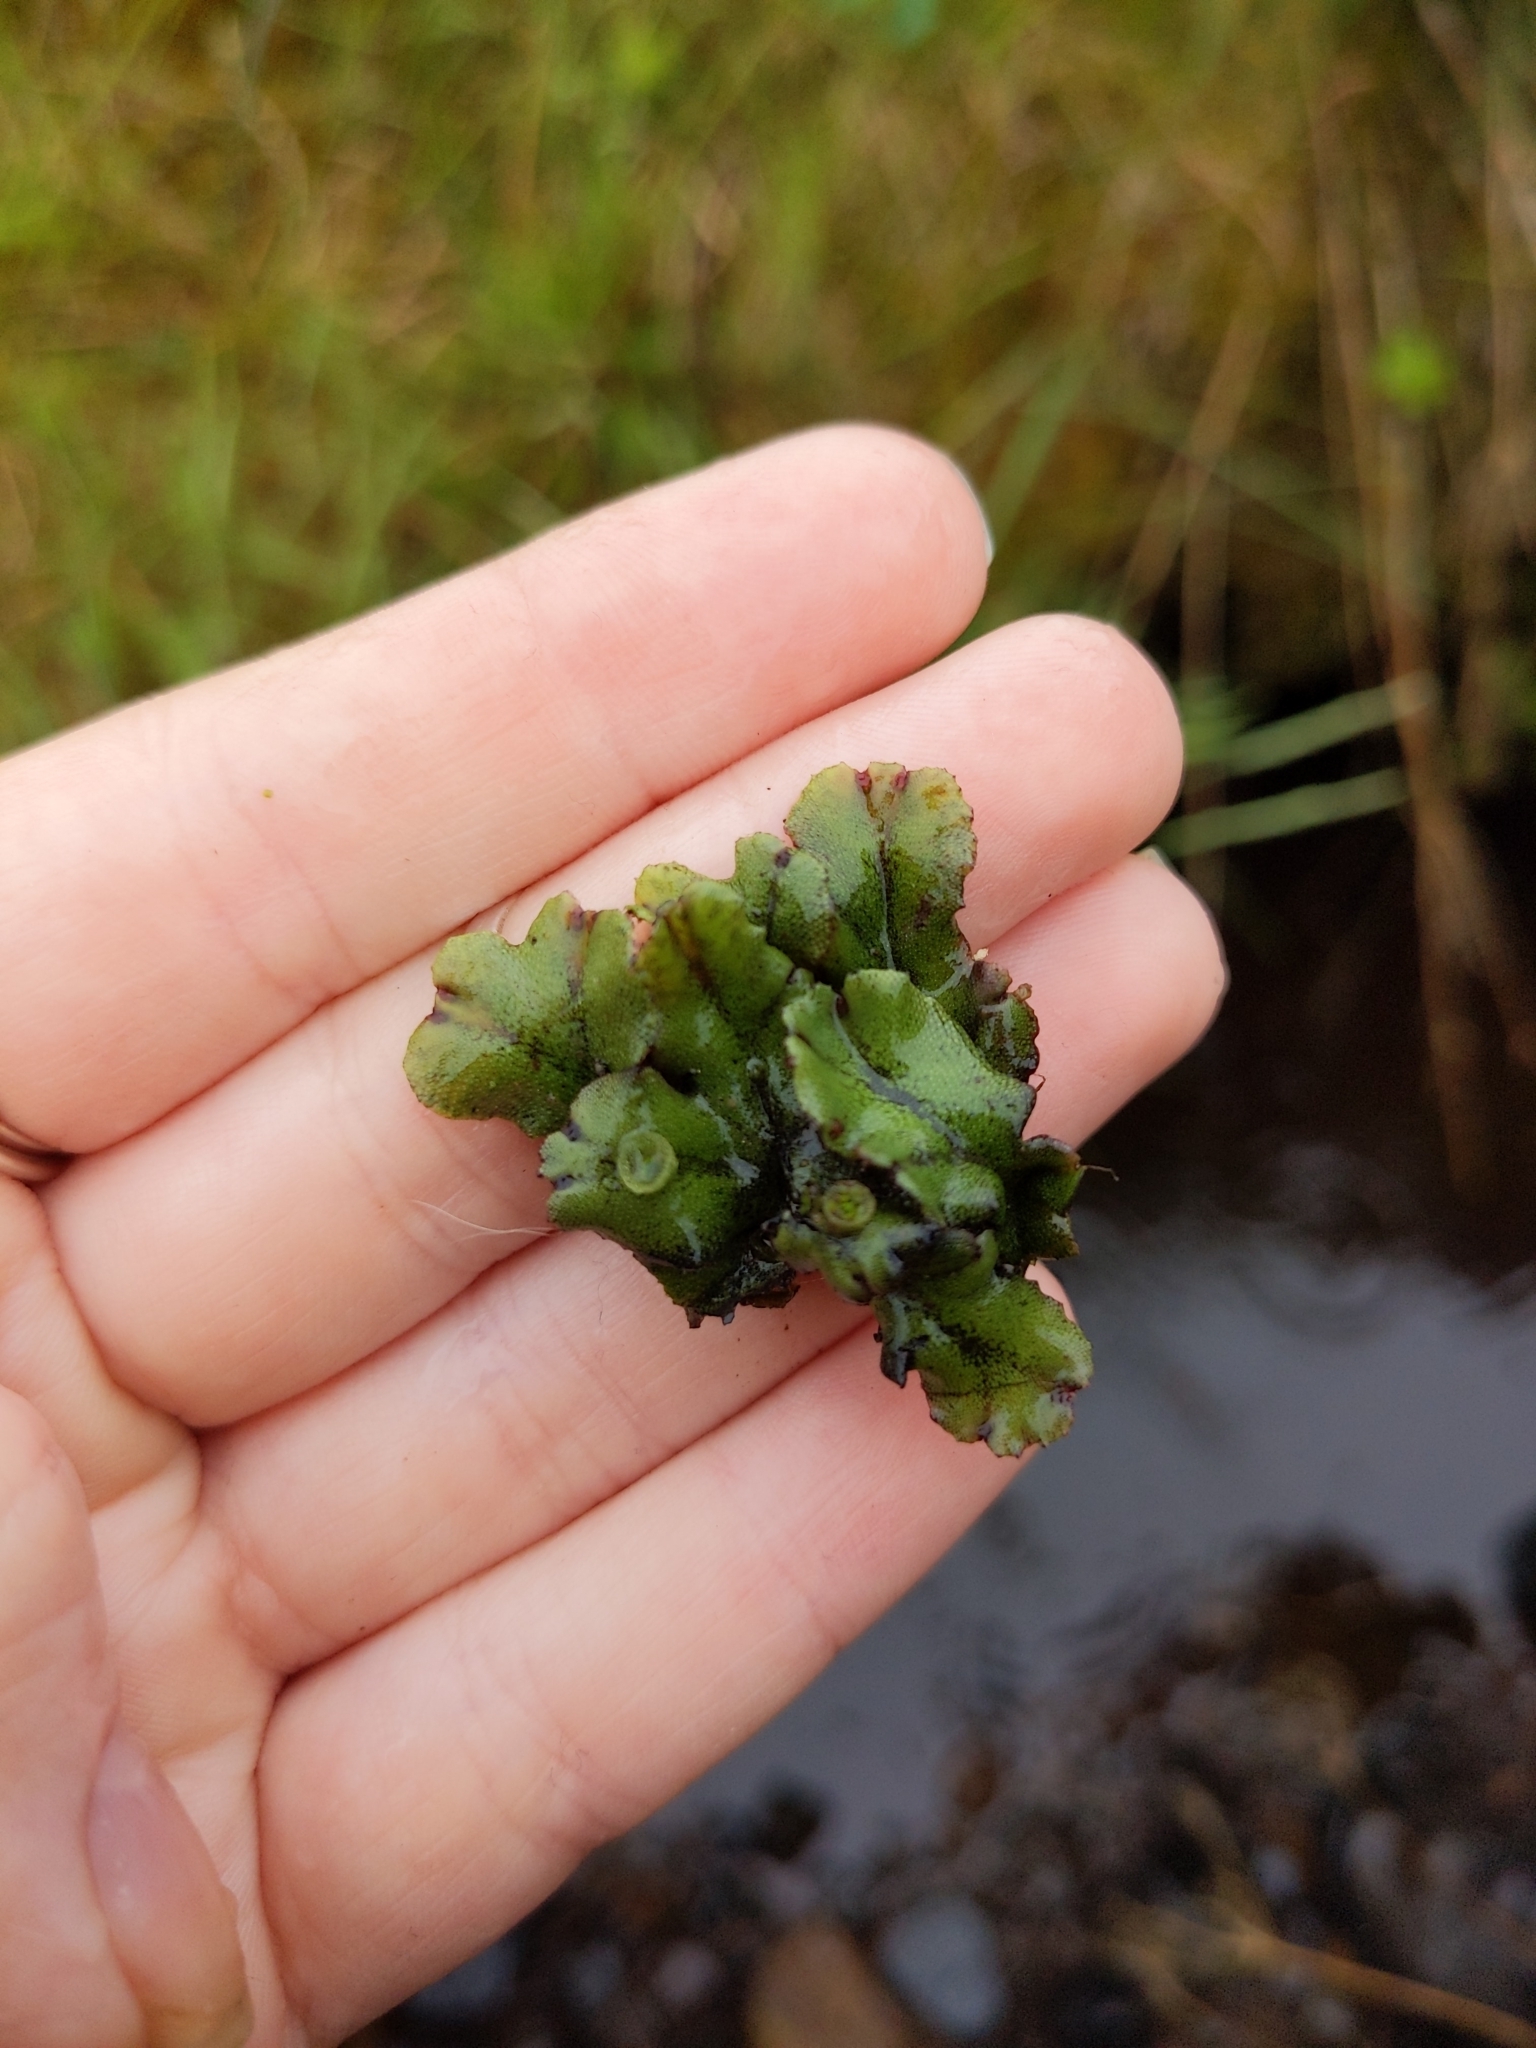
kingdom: Plantae
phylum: Marchantiophyta
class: Marchantiopsida
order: Marchantiales
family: Marchantiaceae
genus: Marchantia
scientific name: Marchantia polymorpha
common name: Common liverwort
